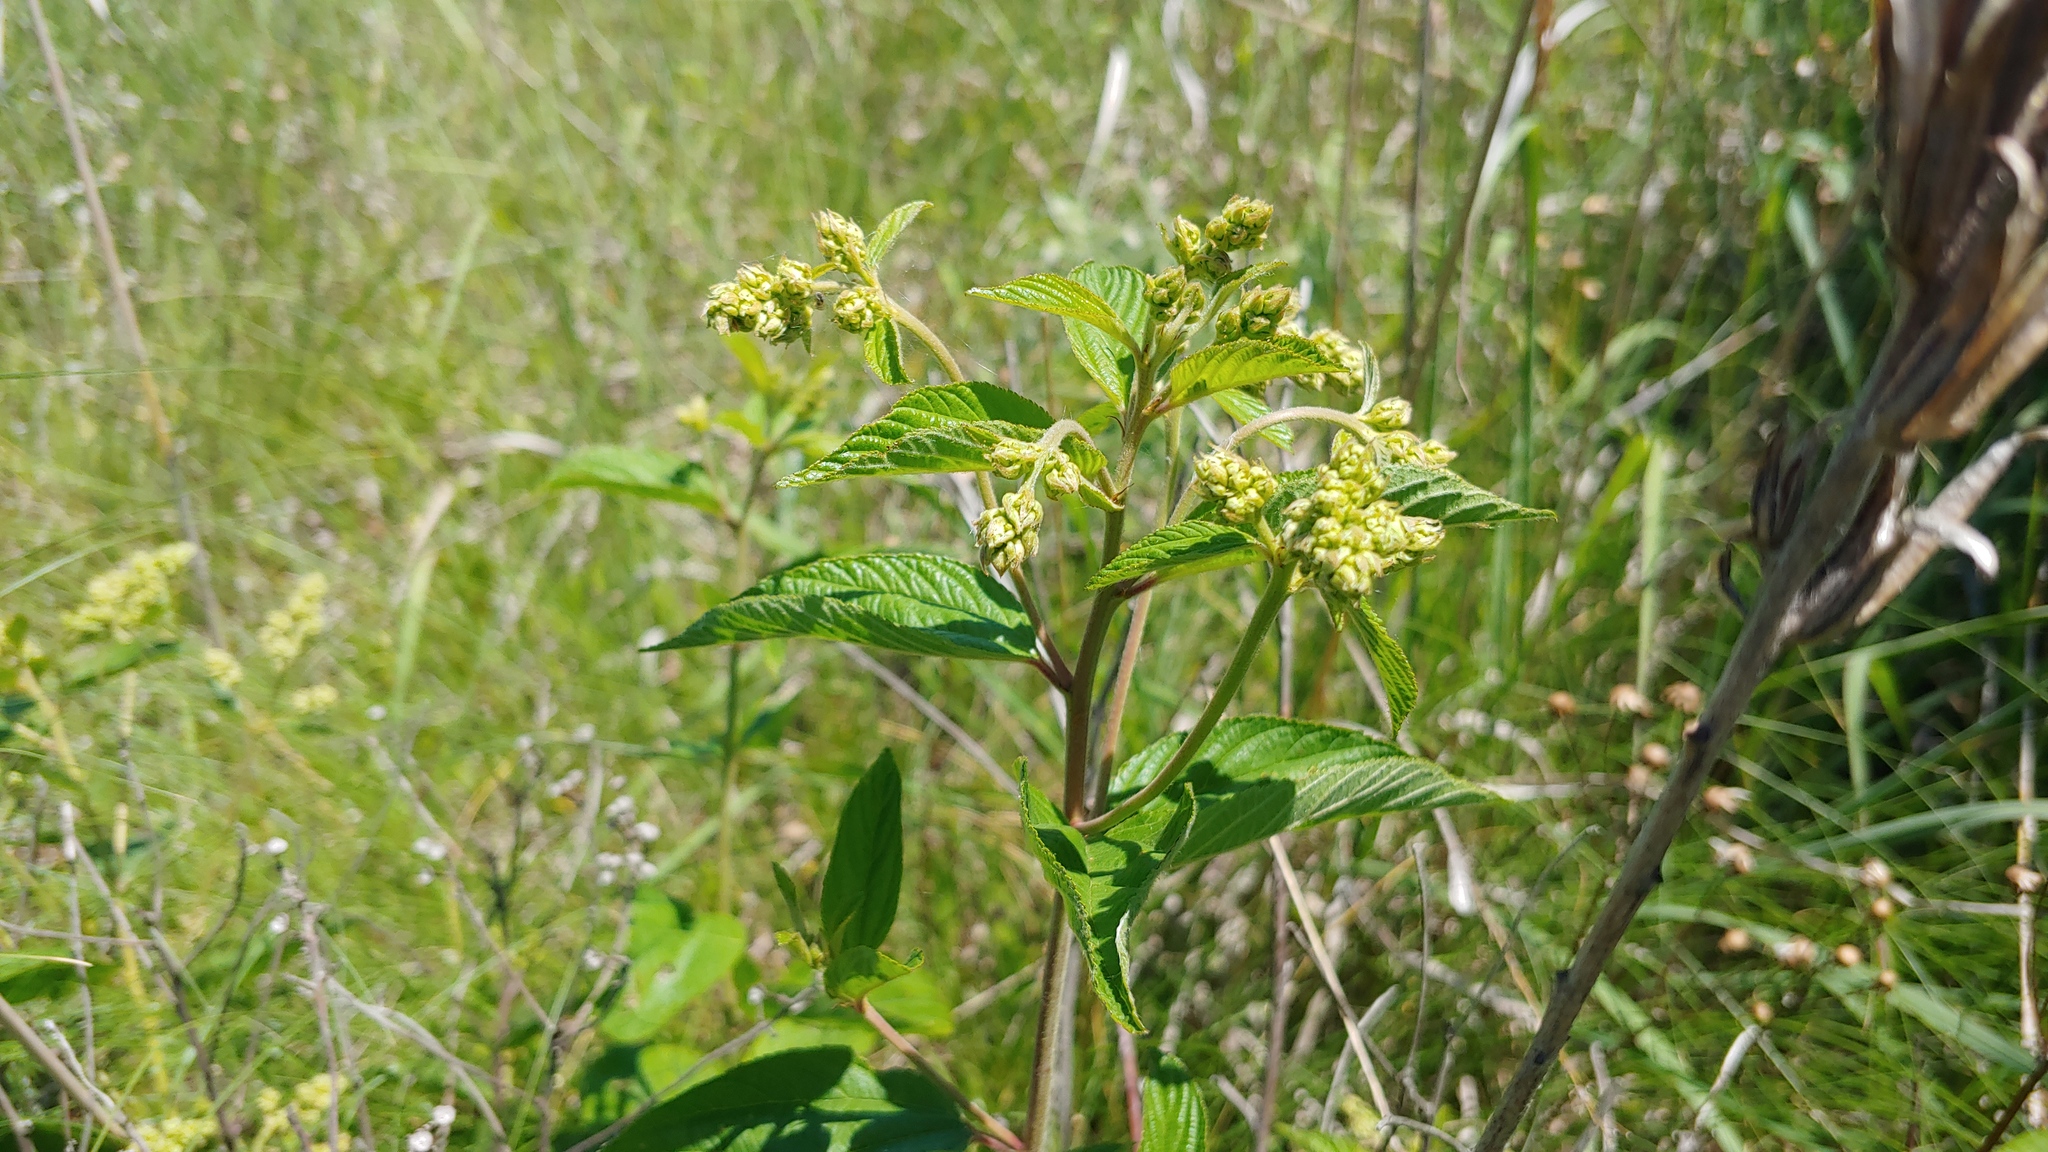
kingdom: Plantae
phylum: Tracheophyta
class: Magnoliopsida
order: Rosales
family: Rhamnaceae
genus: Ceanothus
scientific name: Ceanothus americanus
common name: Redroot
